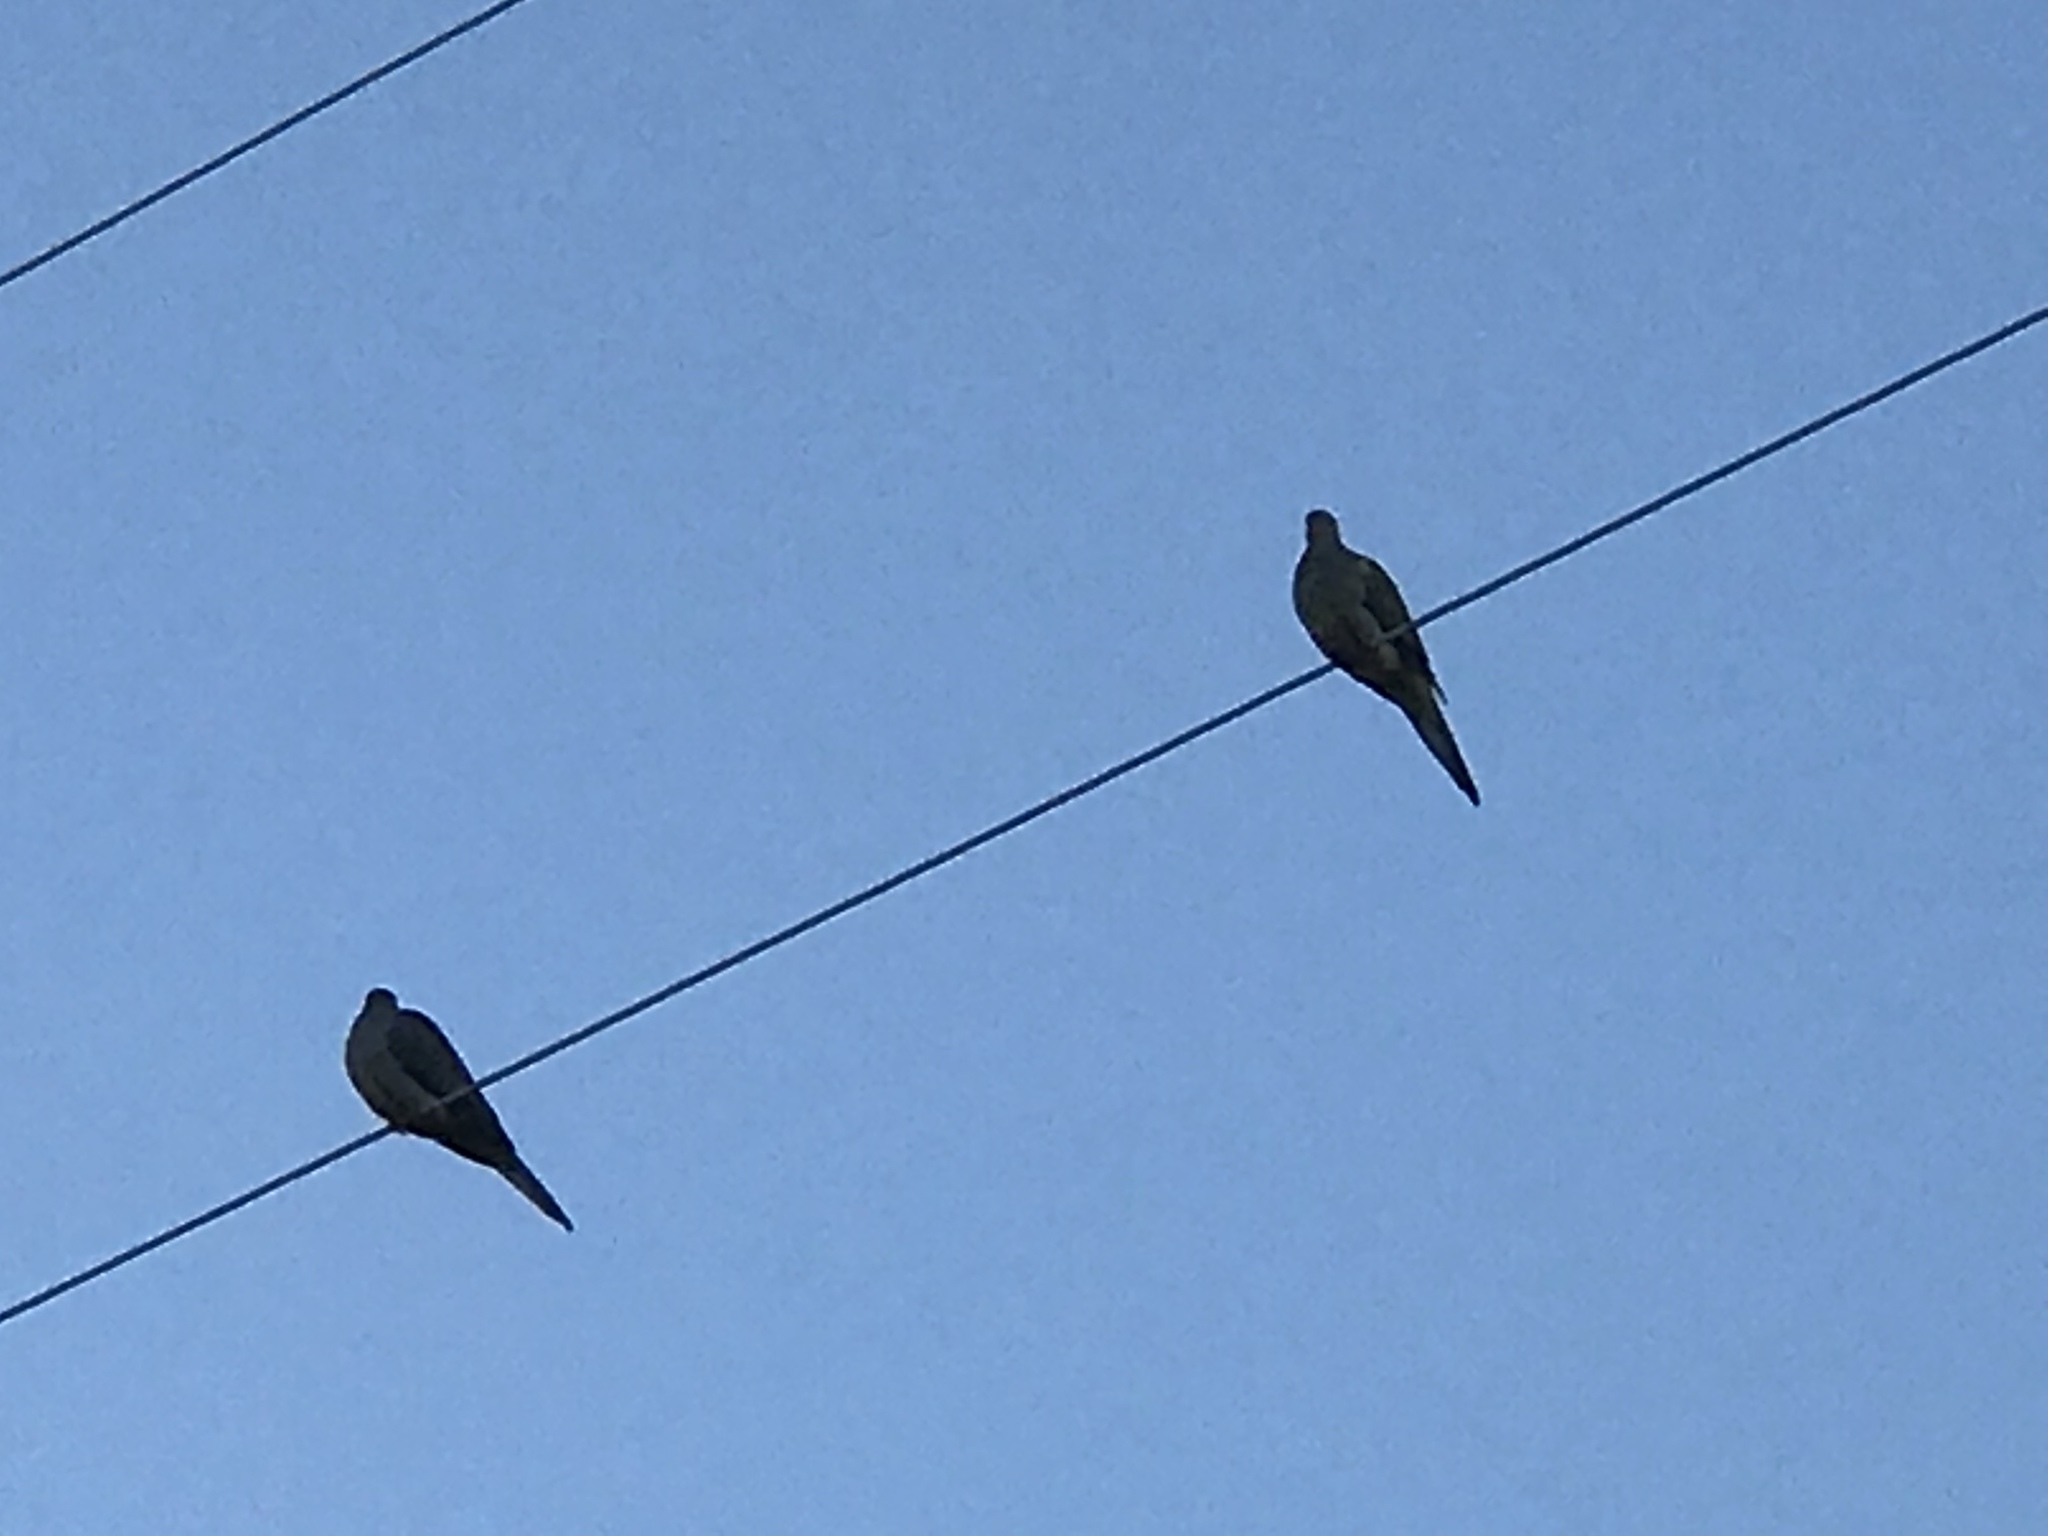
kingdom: Animalia
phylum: Chordata
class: Aves
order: Columbiformes
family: Columbidae
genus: Zenaida
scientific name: Zenaida macroura
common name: Mourning dove
